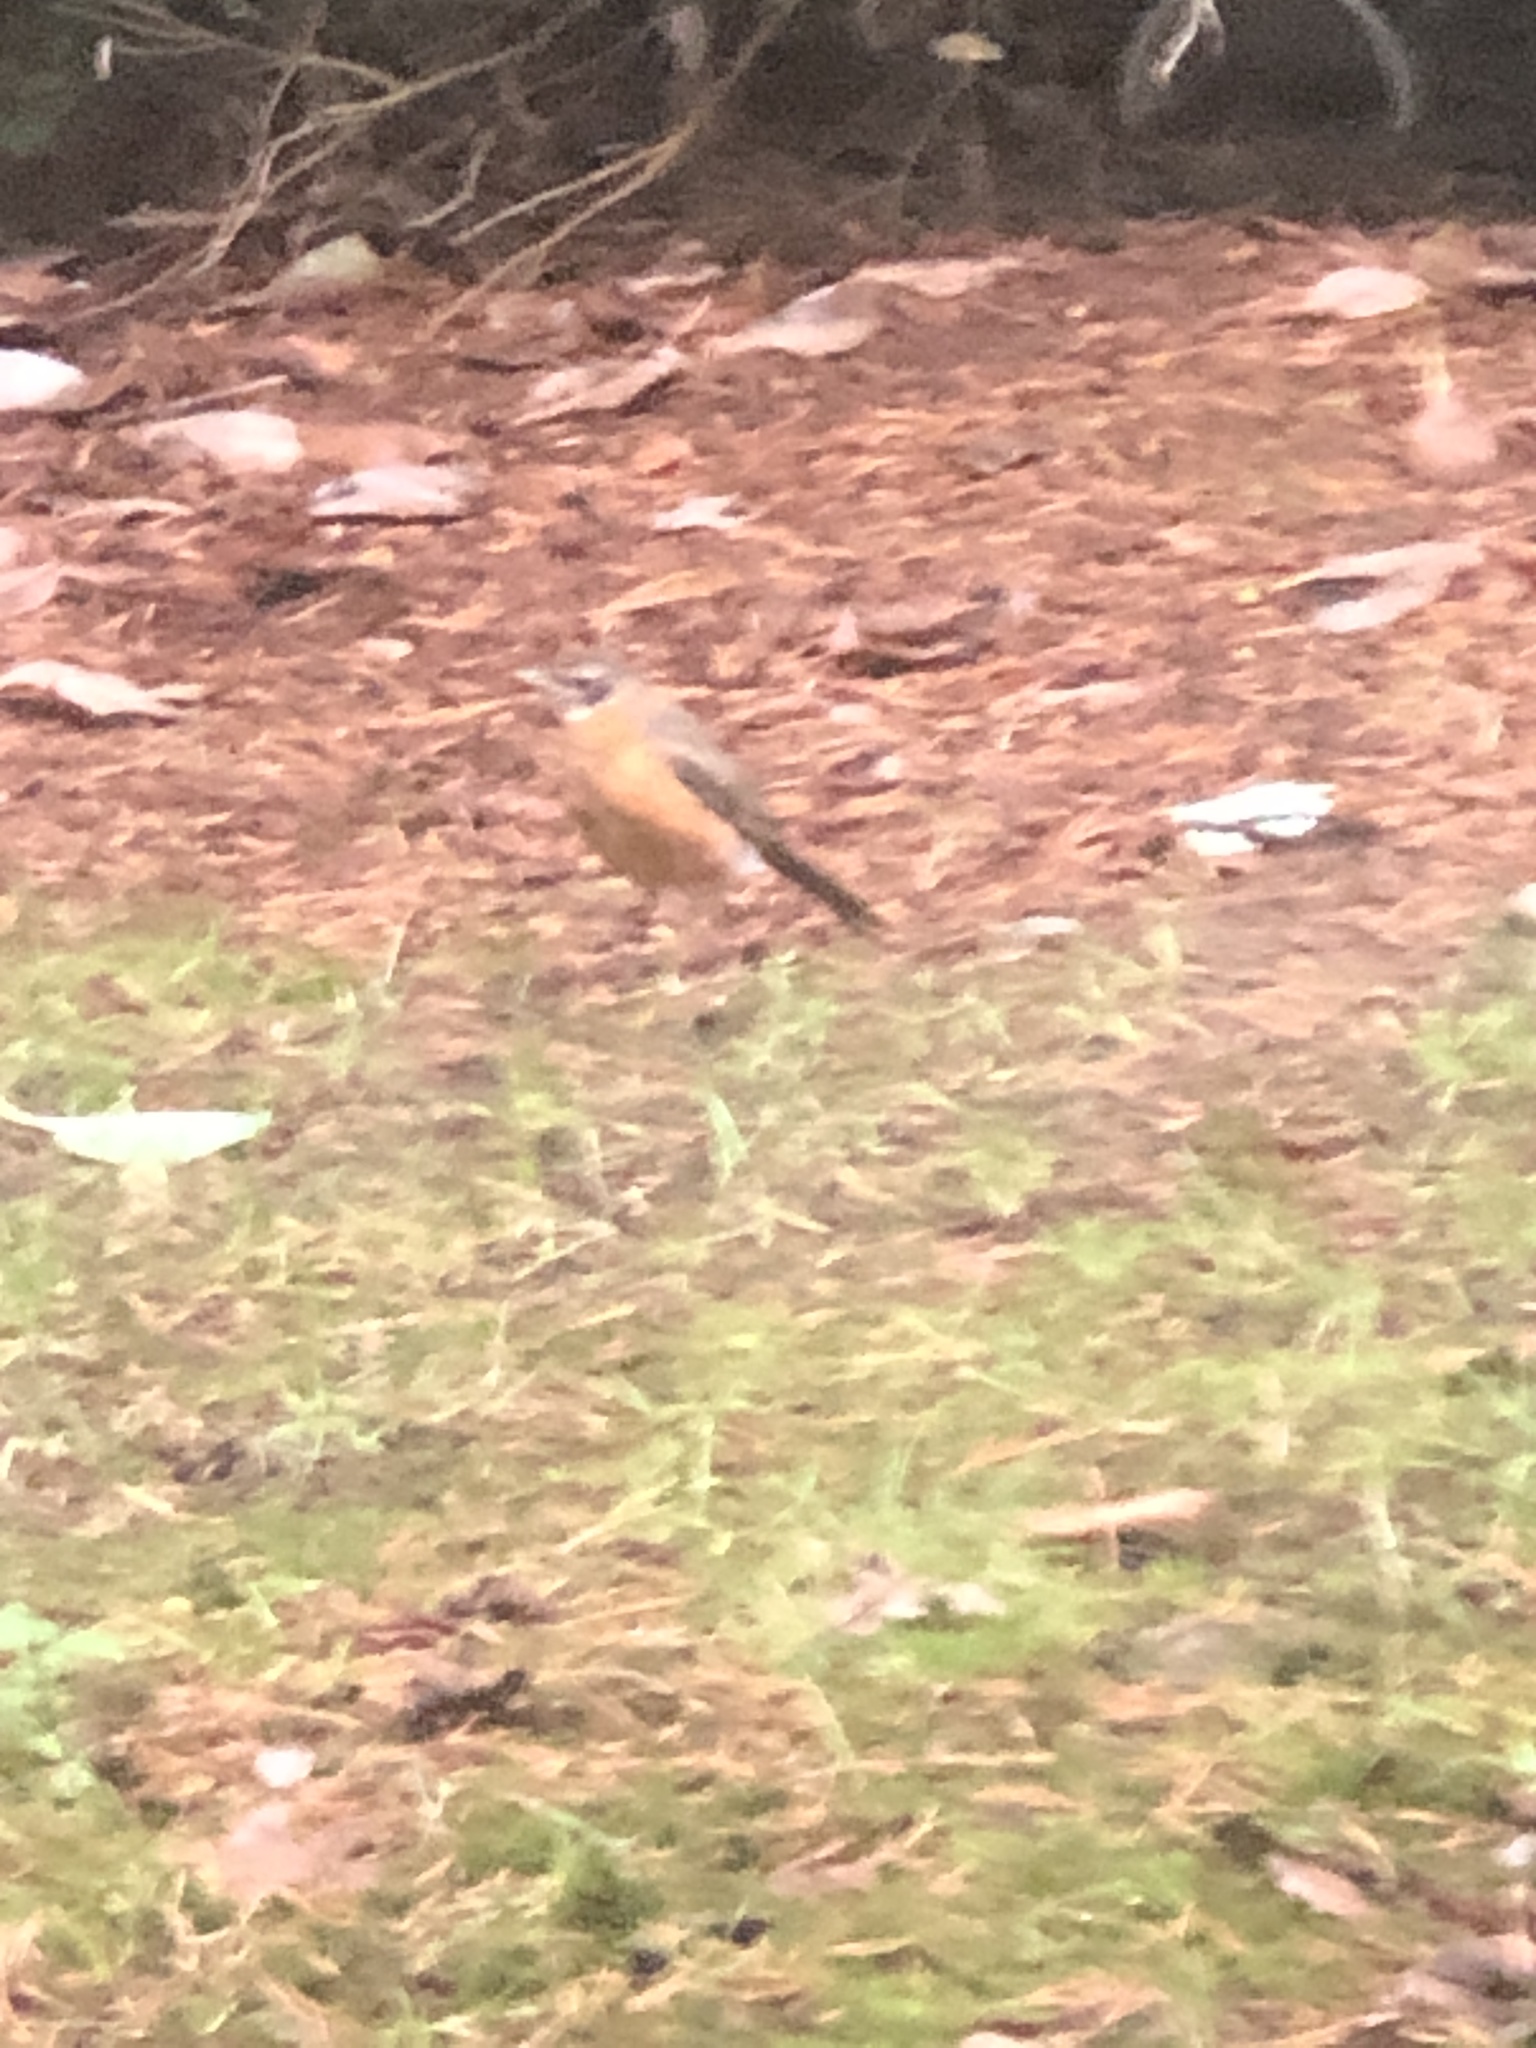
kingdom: Animalia
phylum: Chordata
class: Aves
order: Passeriformes
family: Turdidae
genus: Turdus
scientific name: Turdus migratorius
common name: American robin
